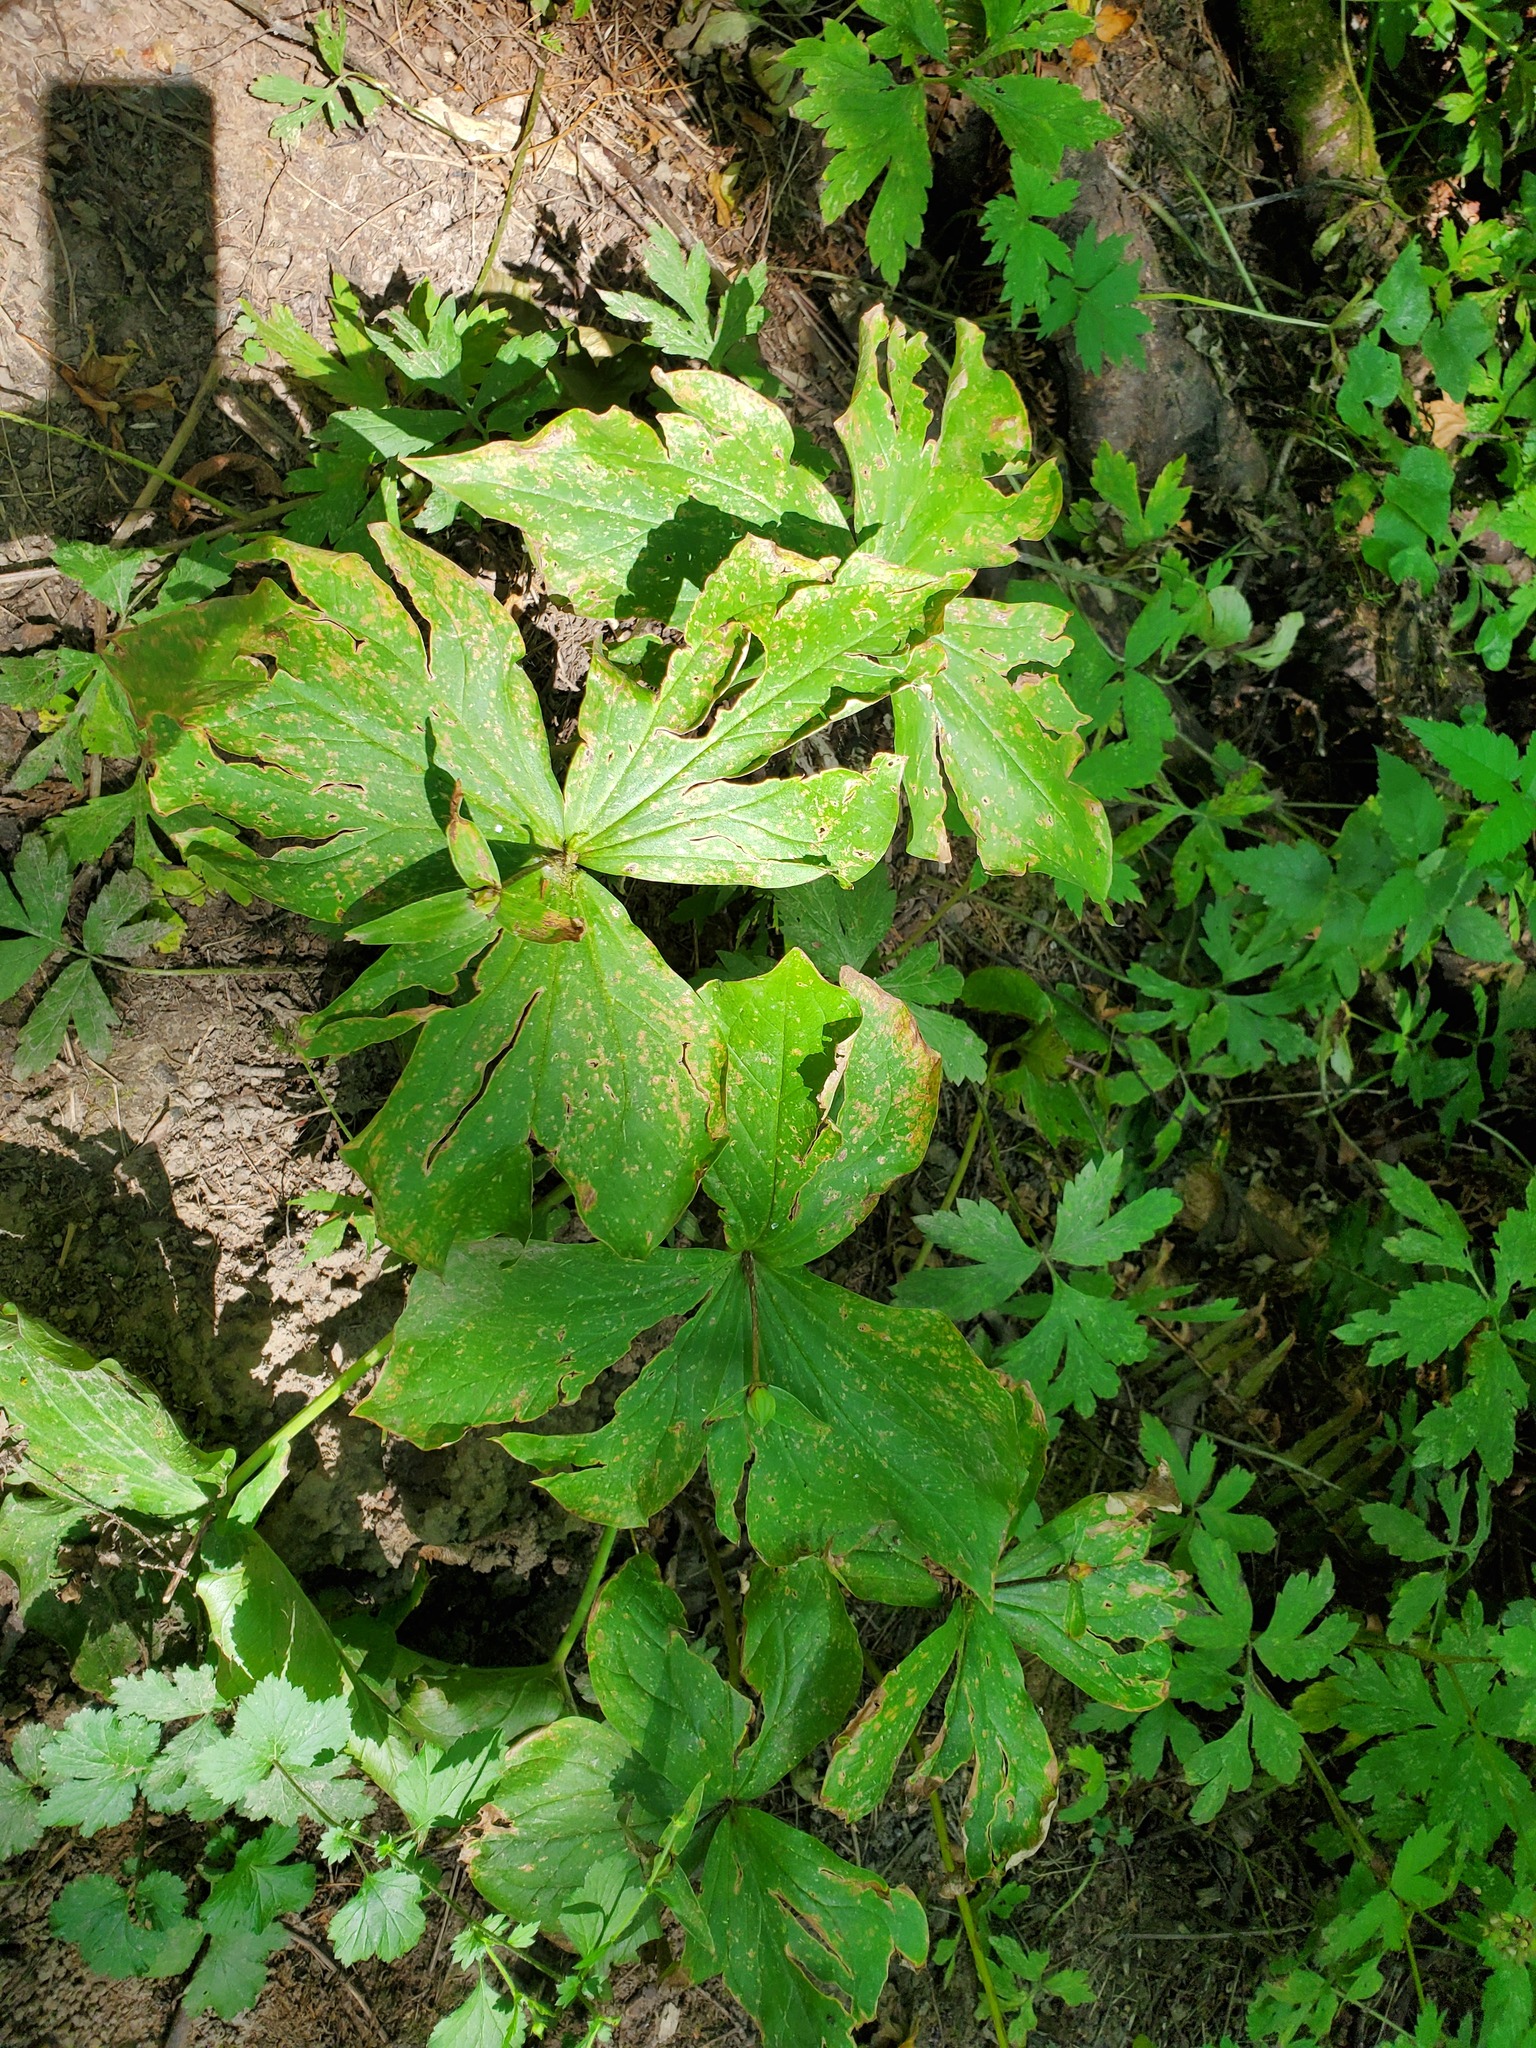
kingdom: Plantae
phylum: Tracheophyta
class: Liliopsida
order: Liliales
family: Melanthiaceae
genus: Trillium
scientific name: Trillium ovatum
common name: Pacific trillium
